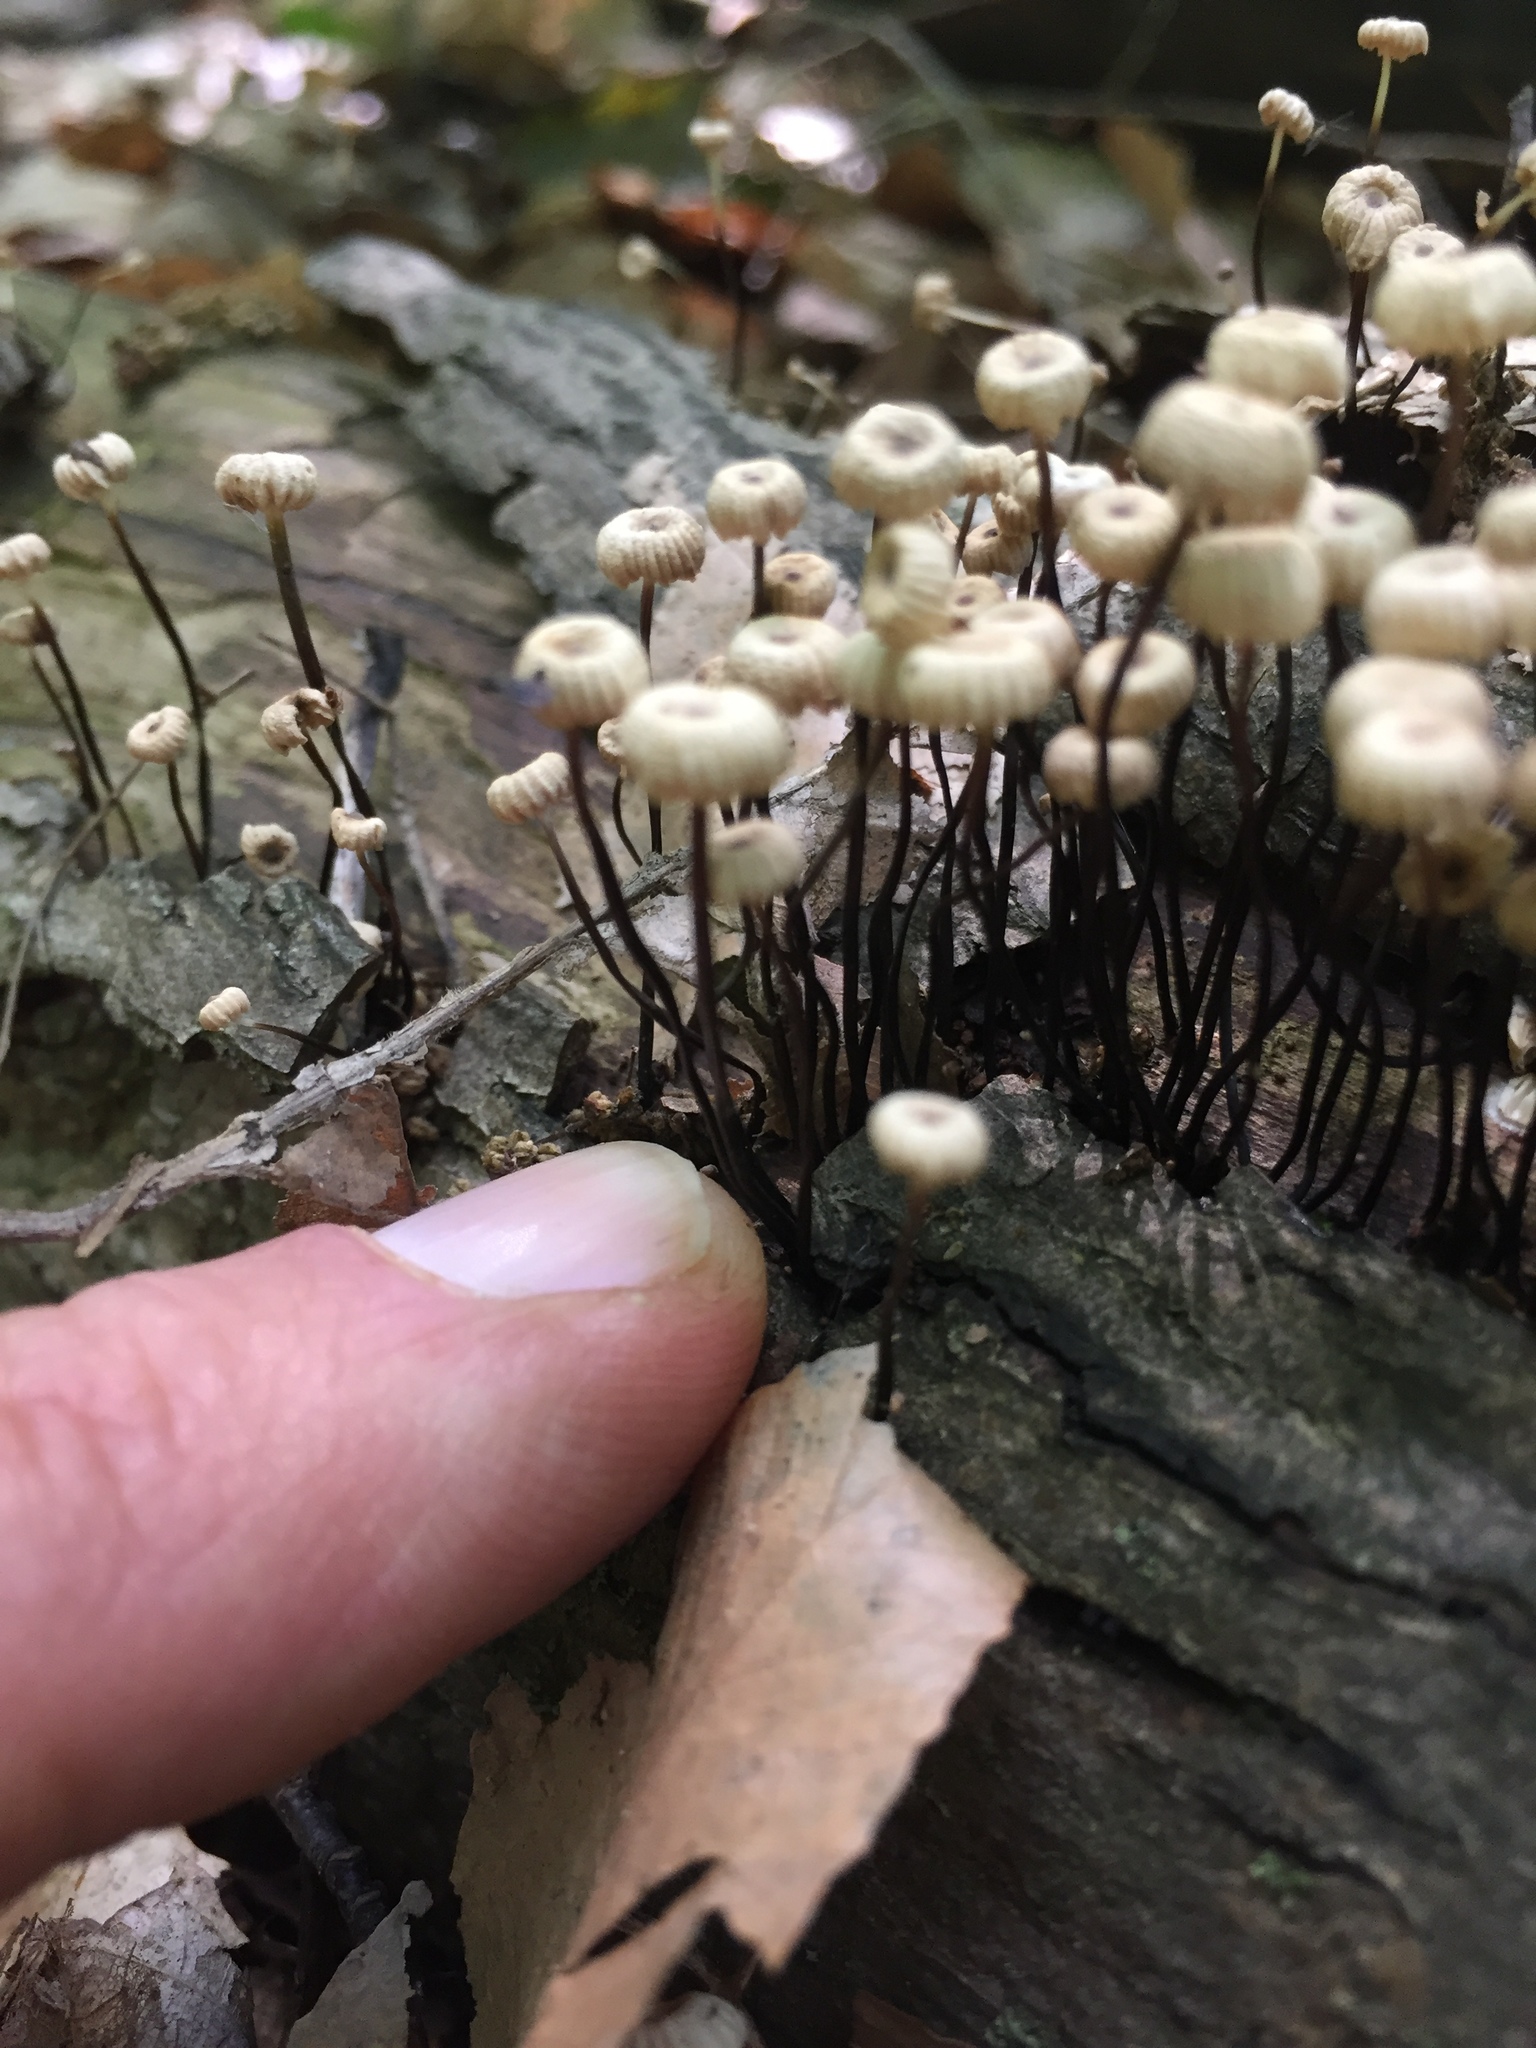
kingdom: Fungi
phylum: Basidiomycota
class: Agaricomycetes
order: Agaricales
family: Marasmiaceae
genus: Marasmius
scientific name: Marasmius rotula
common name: Collared parachute
